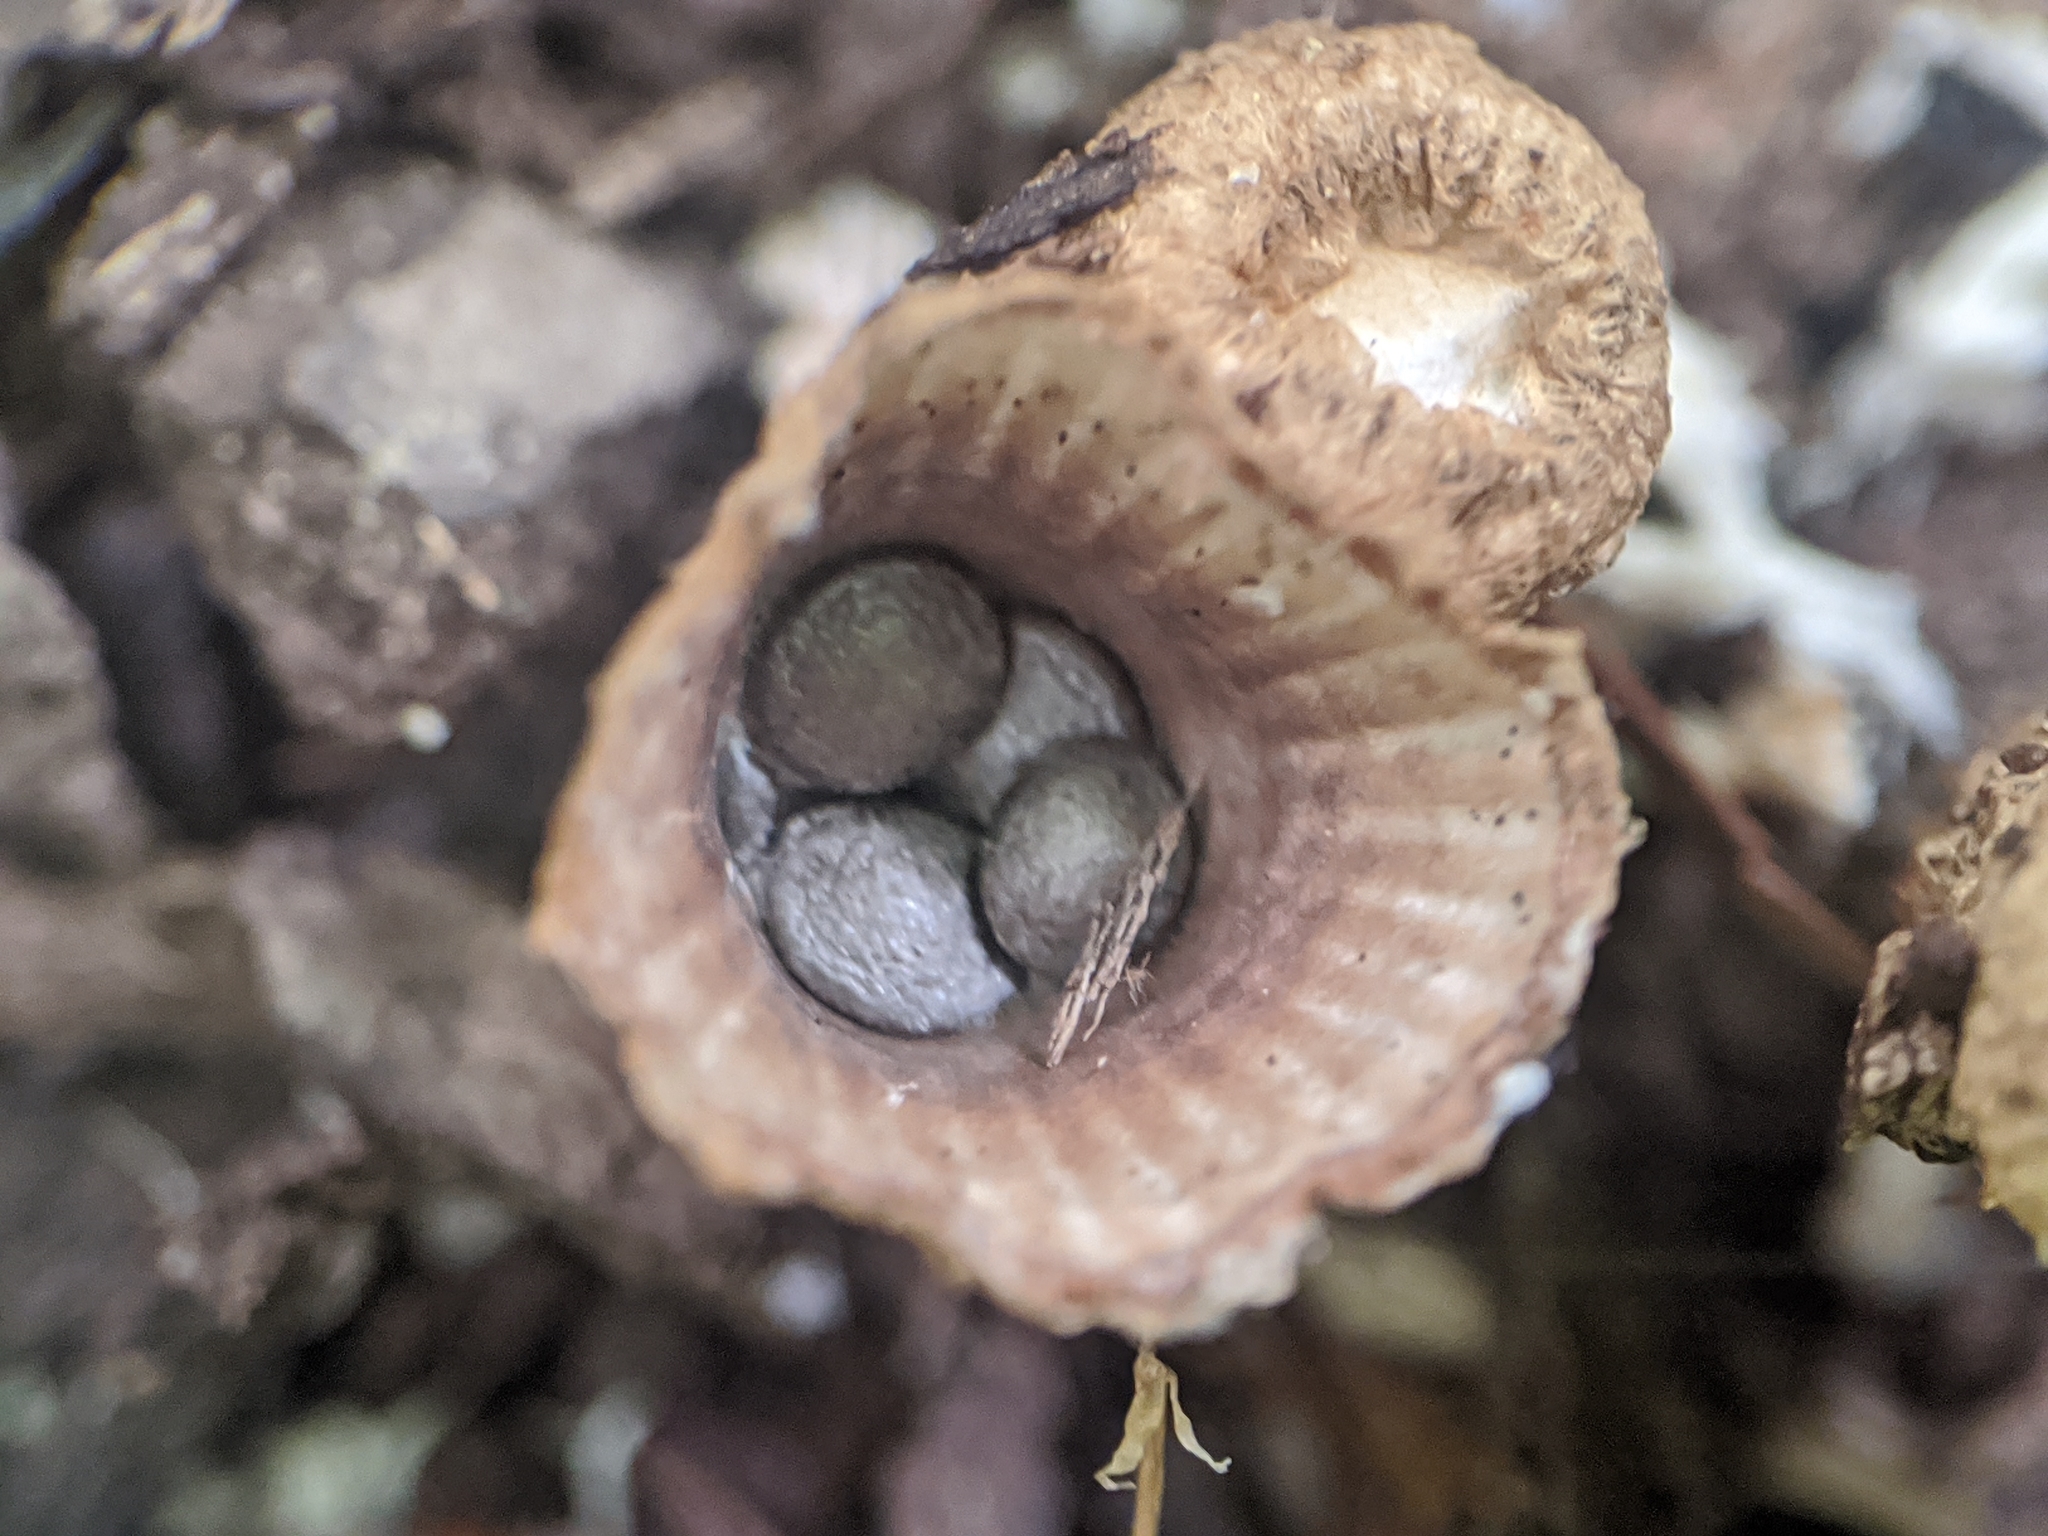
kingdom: Fungi
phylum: Basidiomycota
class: Agaricomycetes
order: Agaricales
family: Agaricaceae
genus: Cyathus
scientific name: Cyathus striatus
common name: Fluted bird's nest
